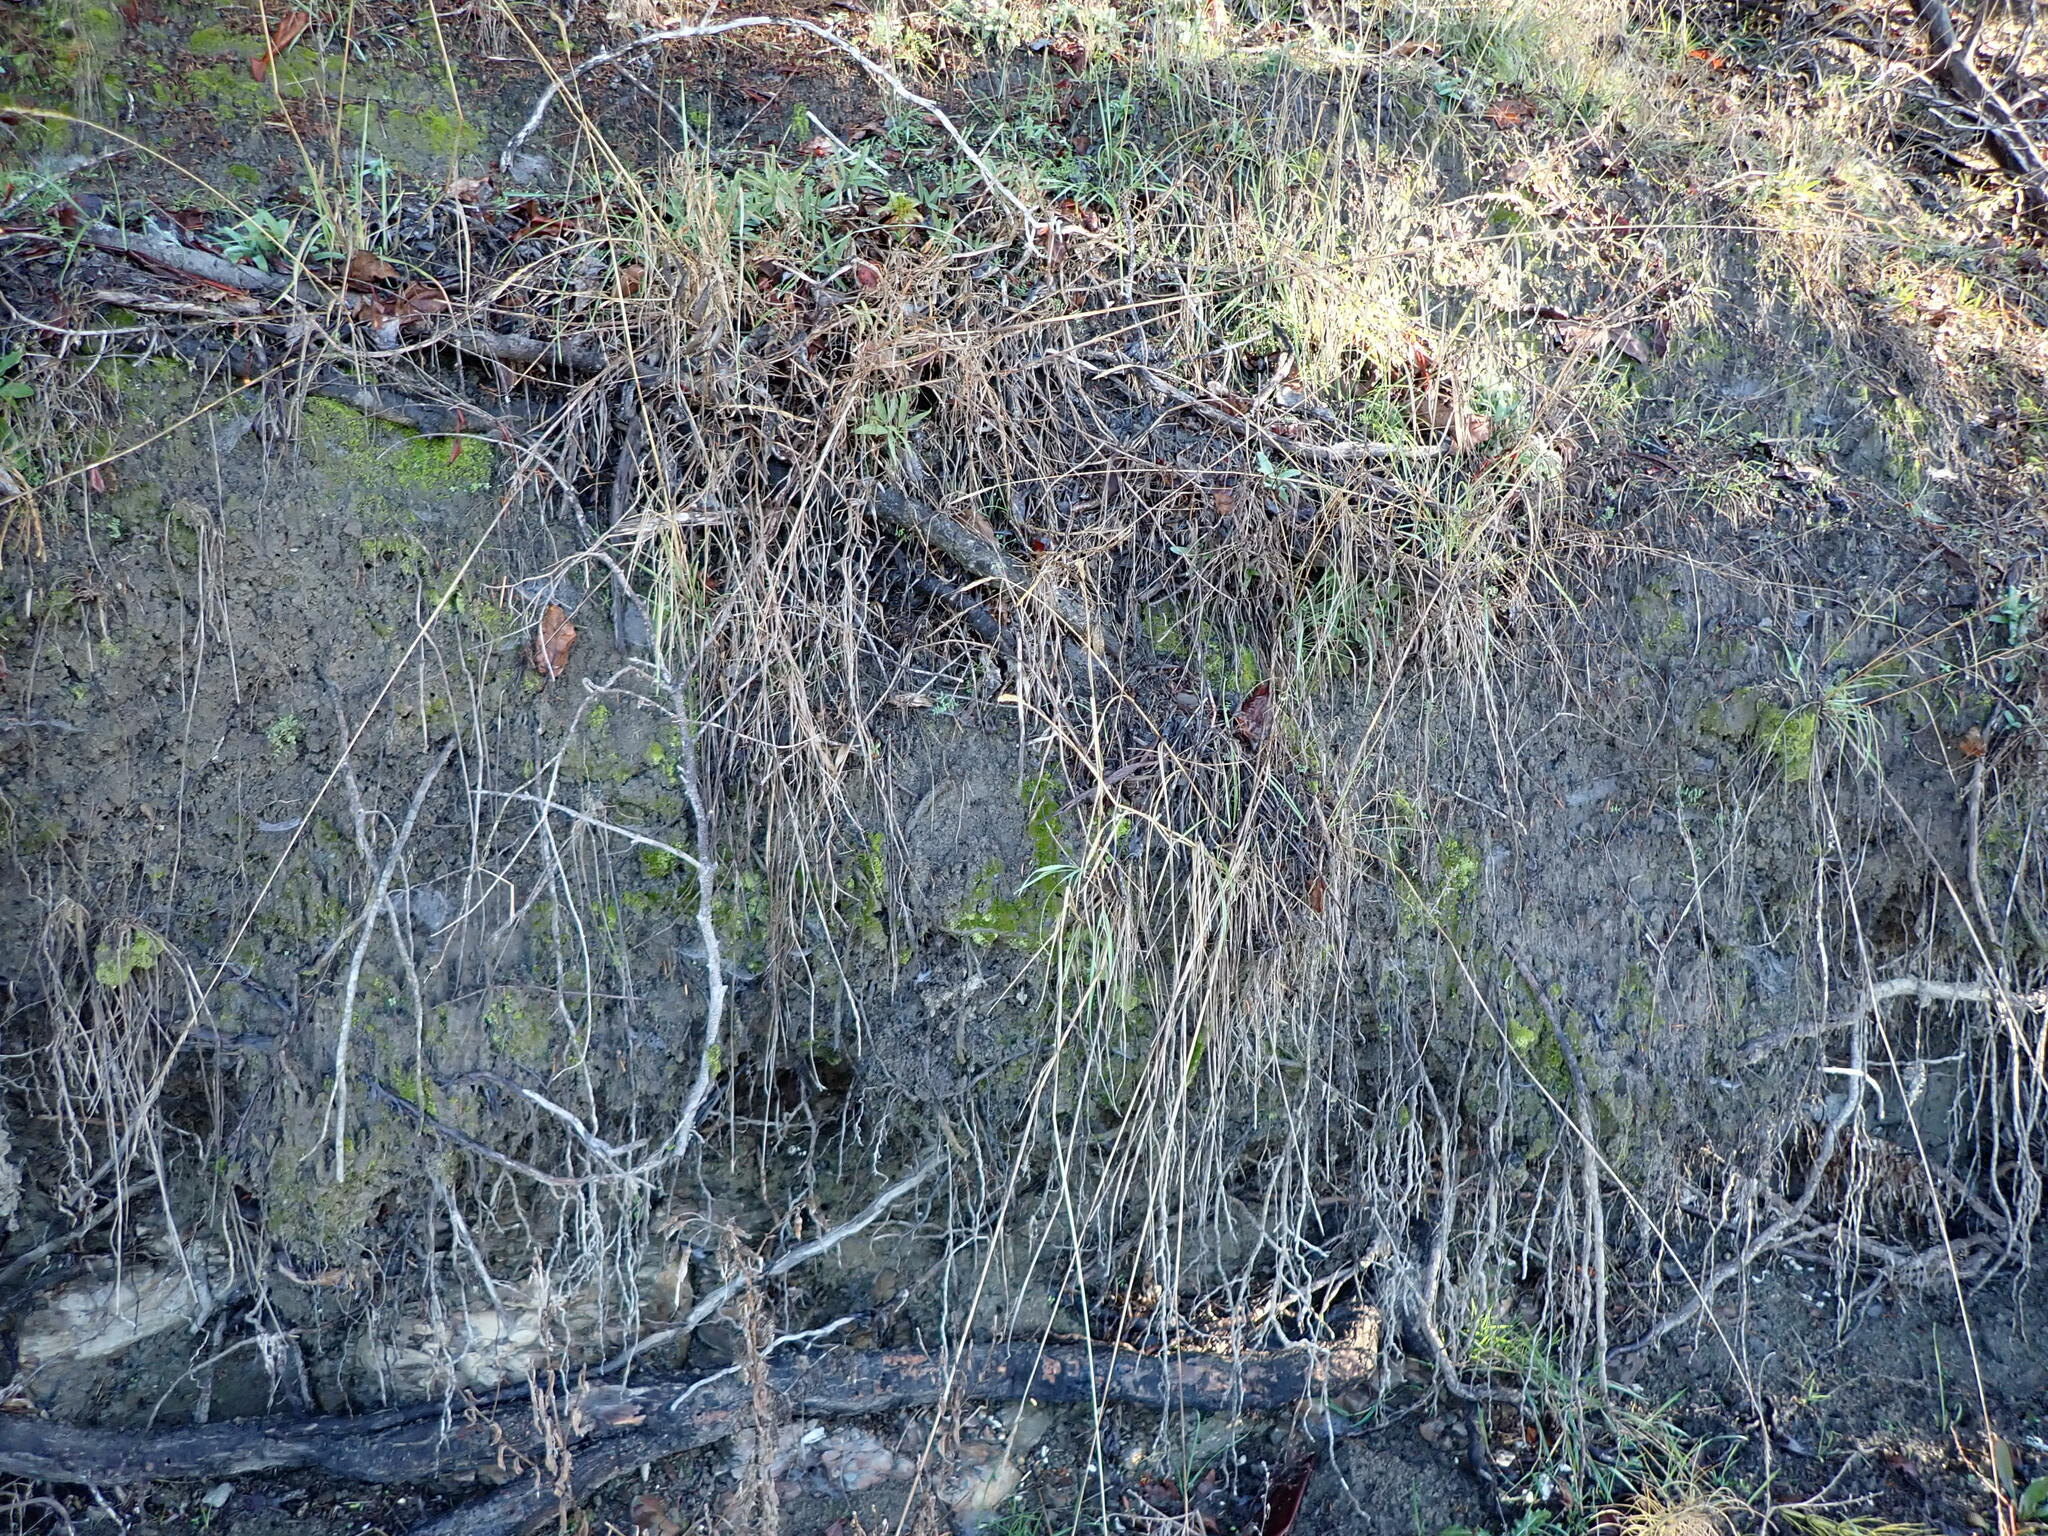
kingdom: Plantae
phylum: Bryophyta
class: Bryopsida
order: Pottiales
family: Pottiaceae
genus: Tortula
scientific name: Tortula bolanderi
